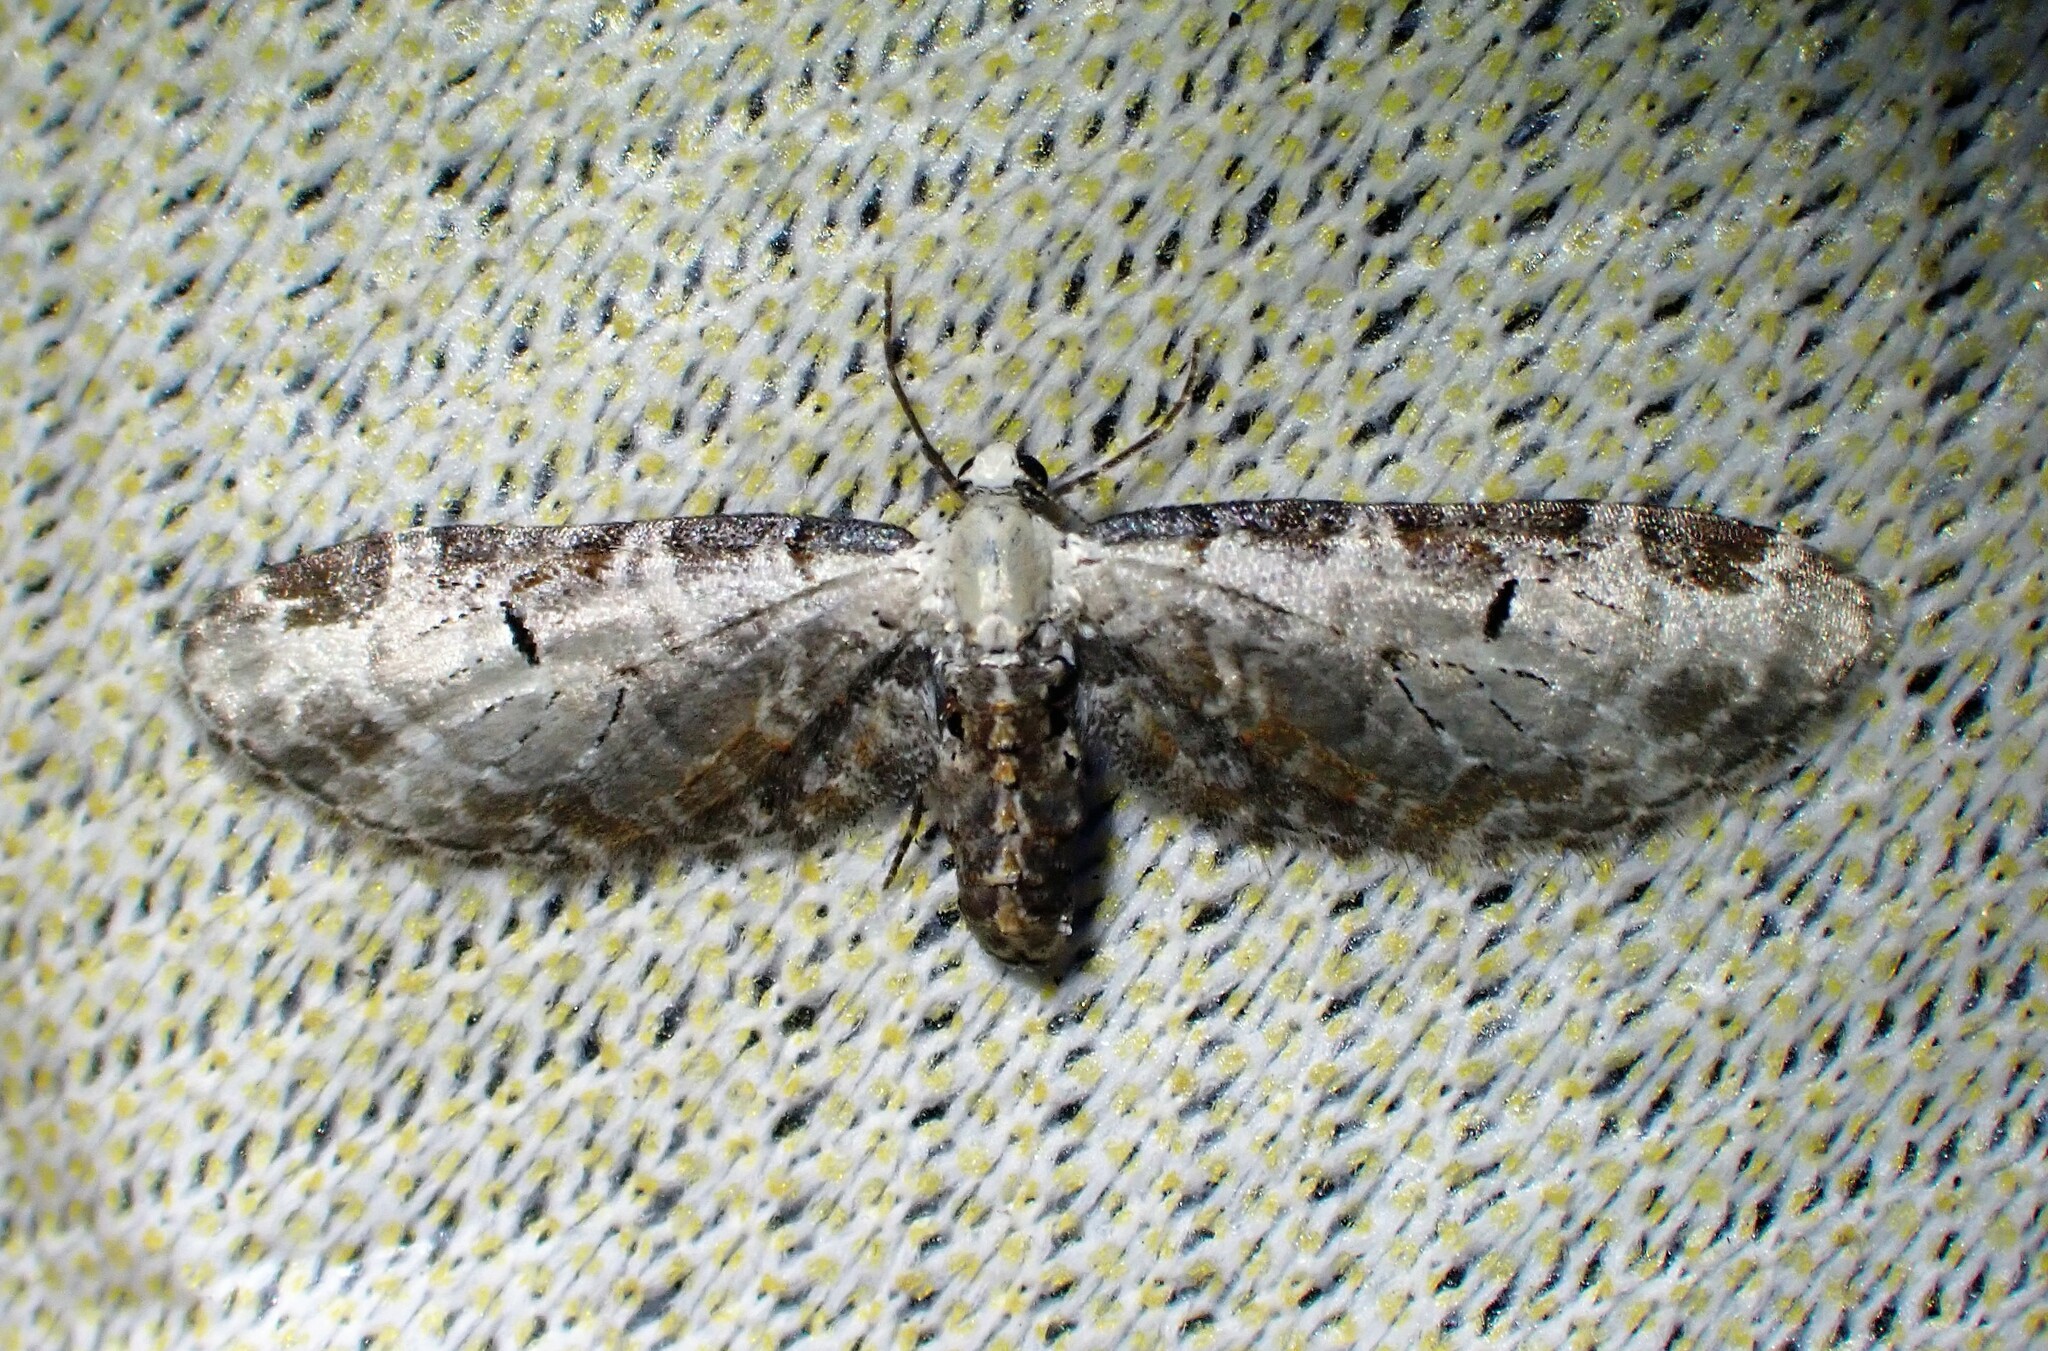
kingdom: Animalia
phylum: Arthropoda
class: Insecta
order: Lepidoptera
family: Geometridae
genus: Eupithecia
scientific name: Eupithecia ravocostaliata
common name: Great varigated pug
